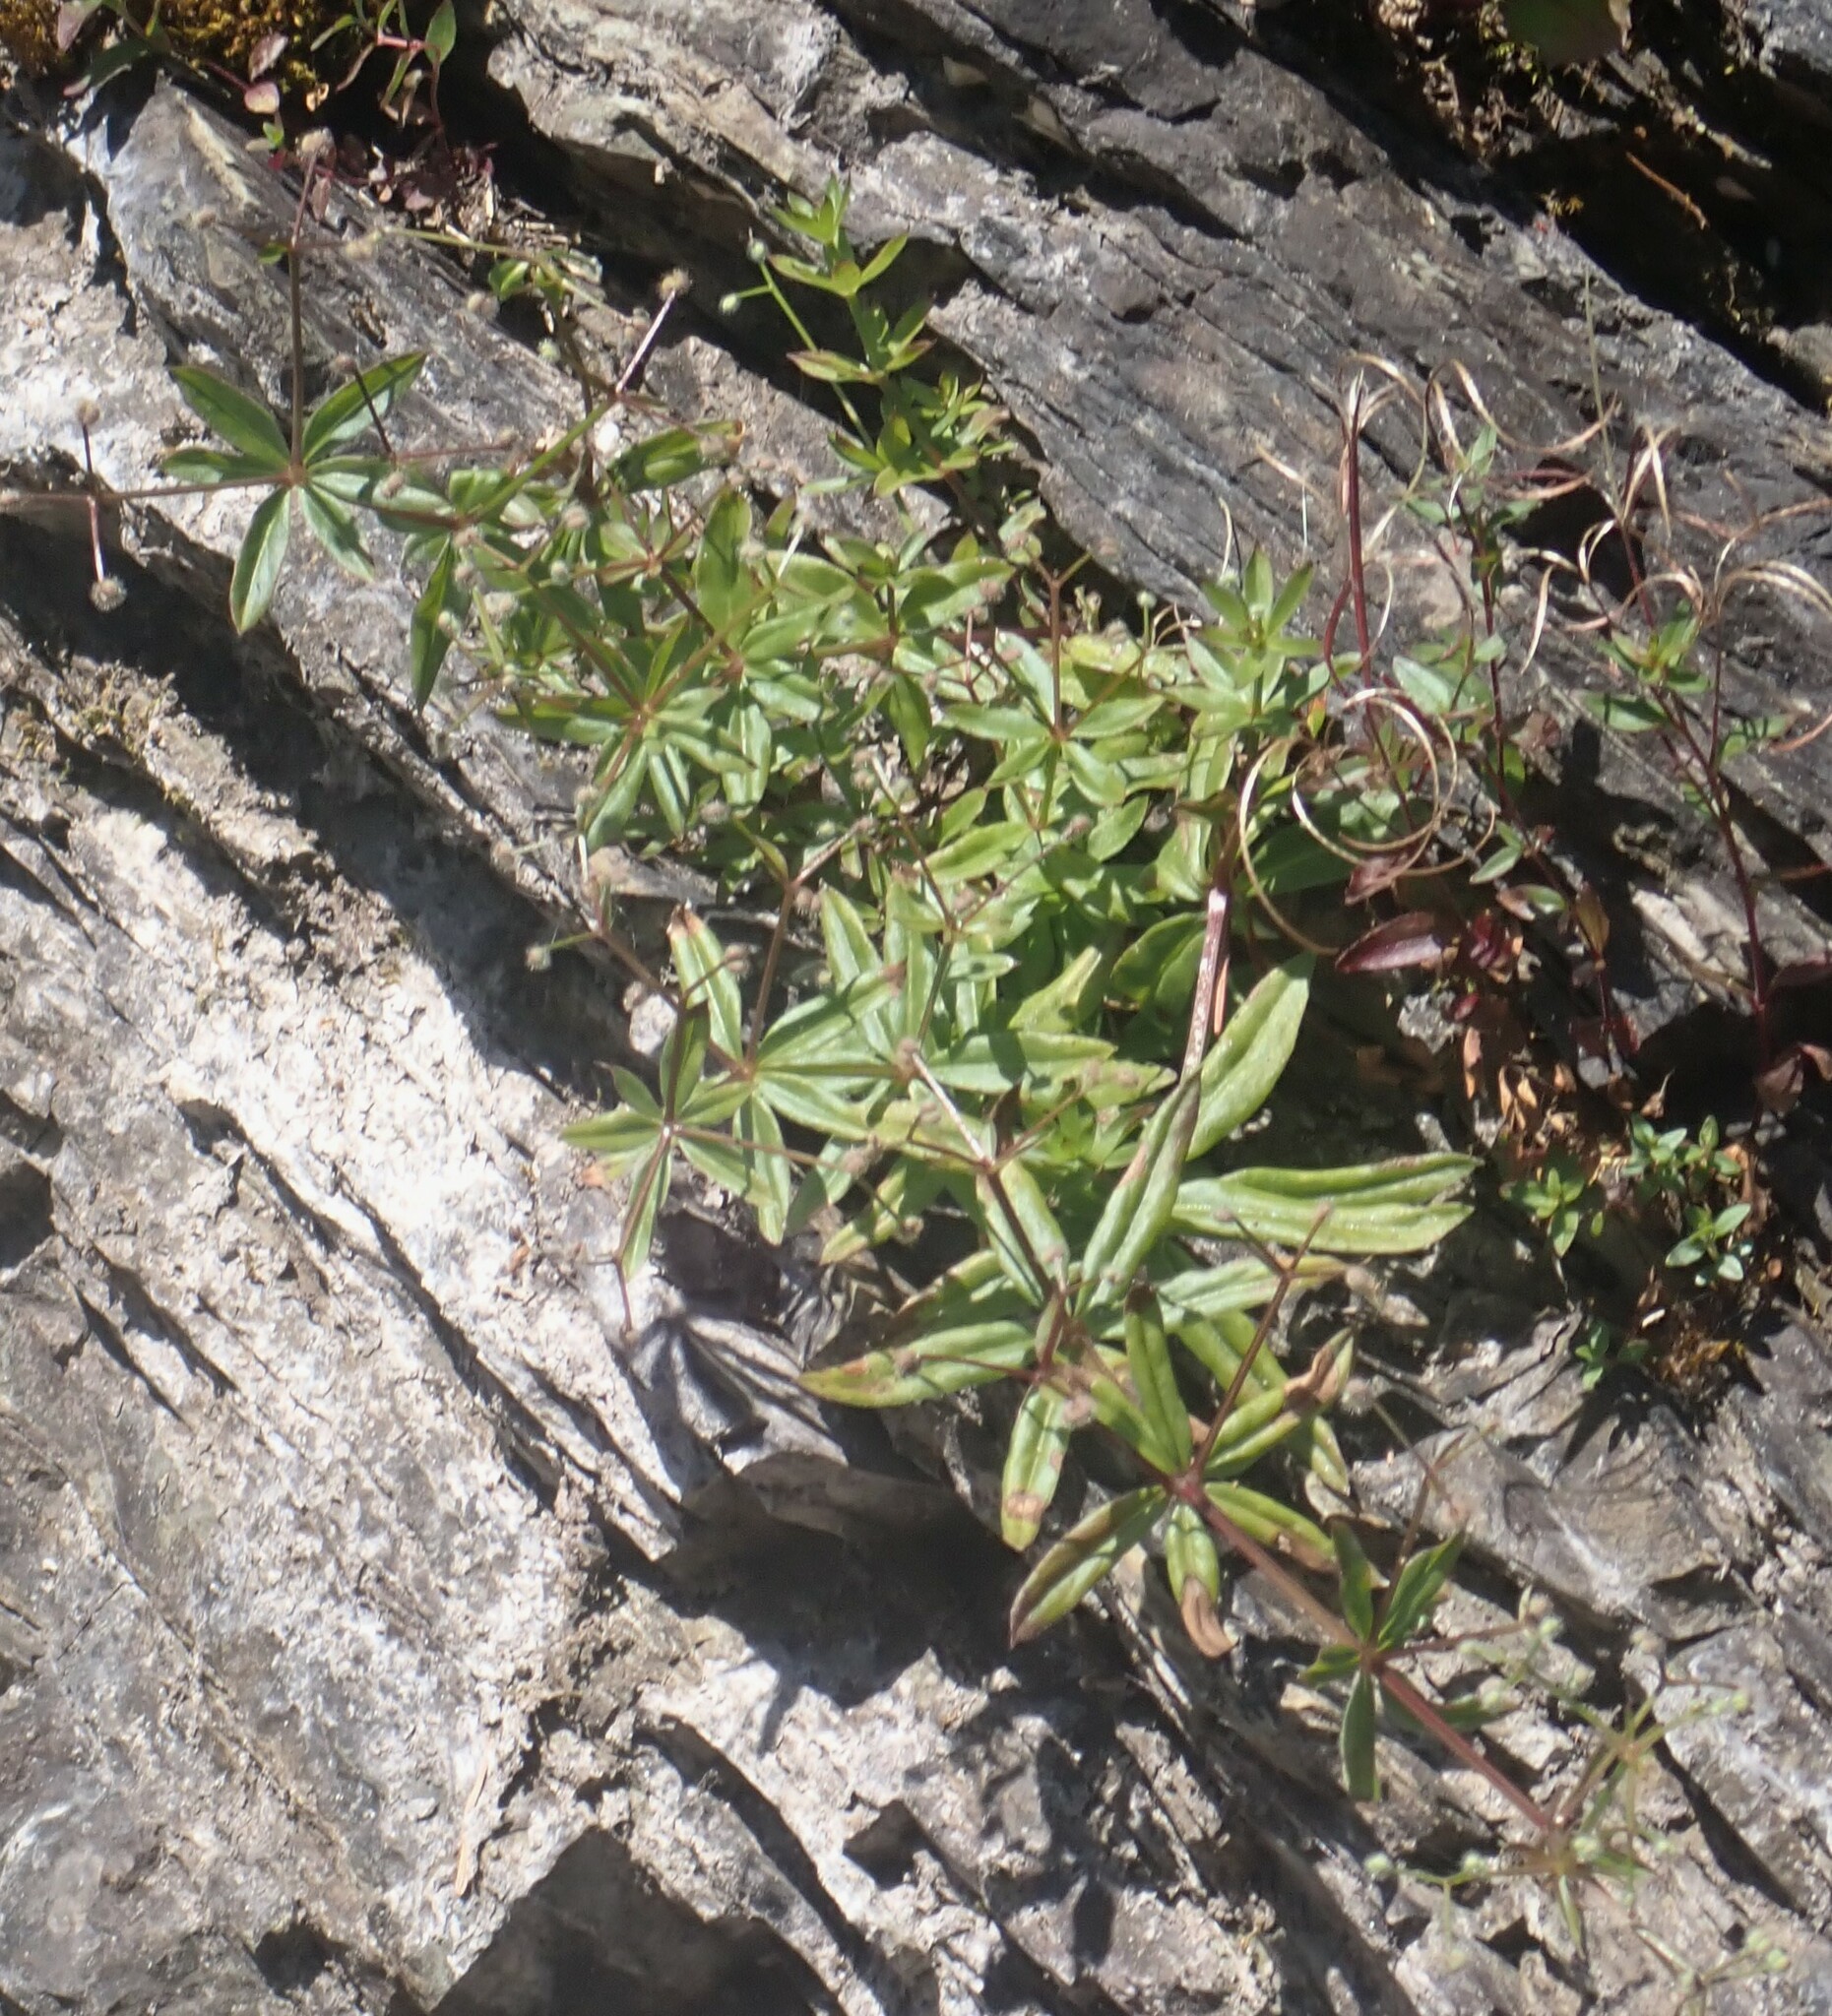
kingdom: Plantae
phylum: Tracheophyta
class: Magnoliopsida
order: Gentianales
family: Rubiaceae
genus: Galium
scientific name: Galium triflorum
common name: Fragrant bedstraw
